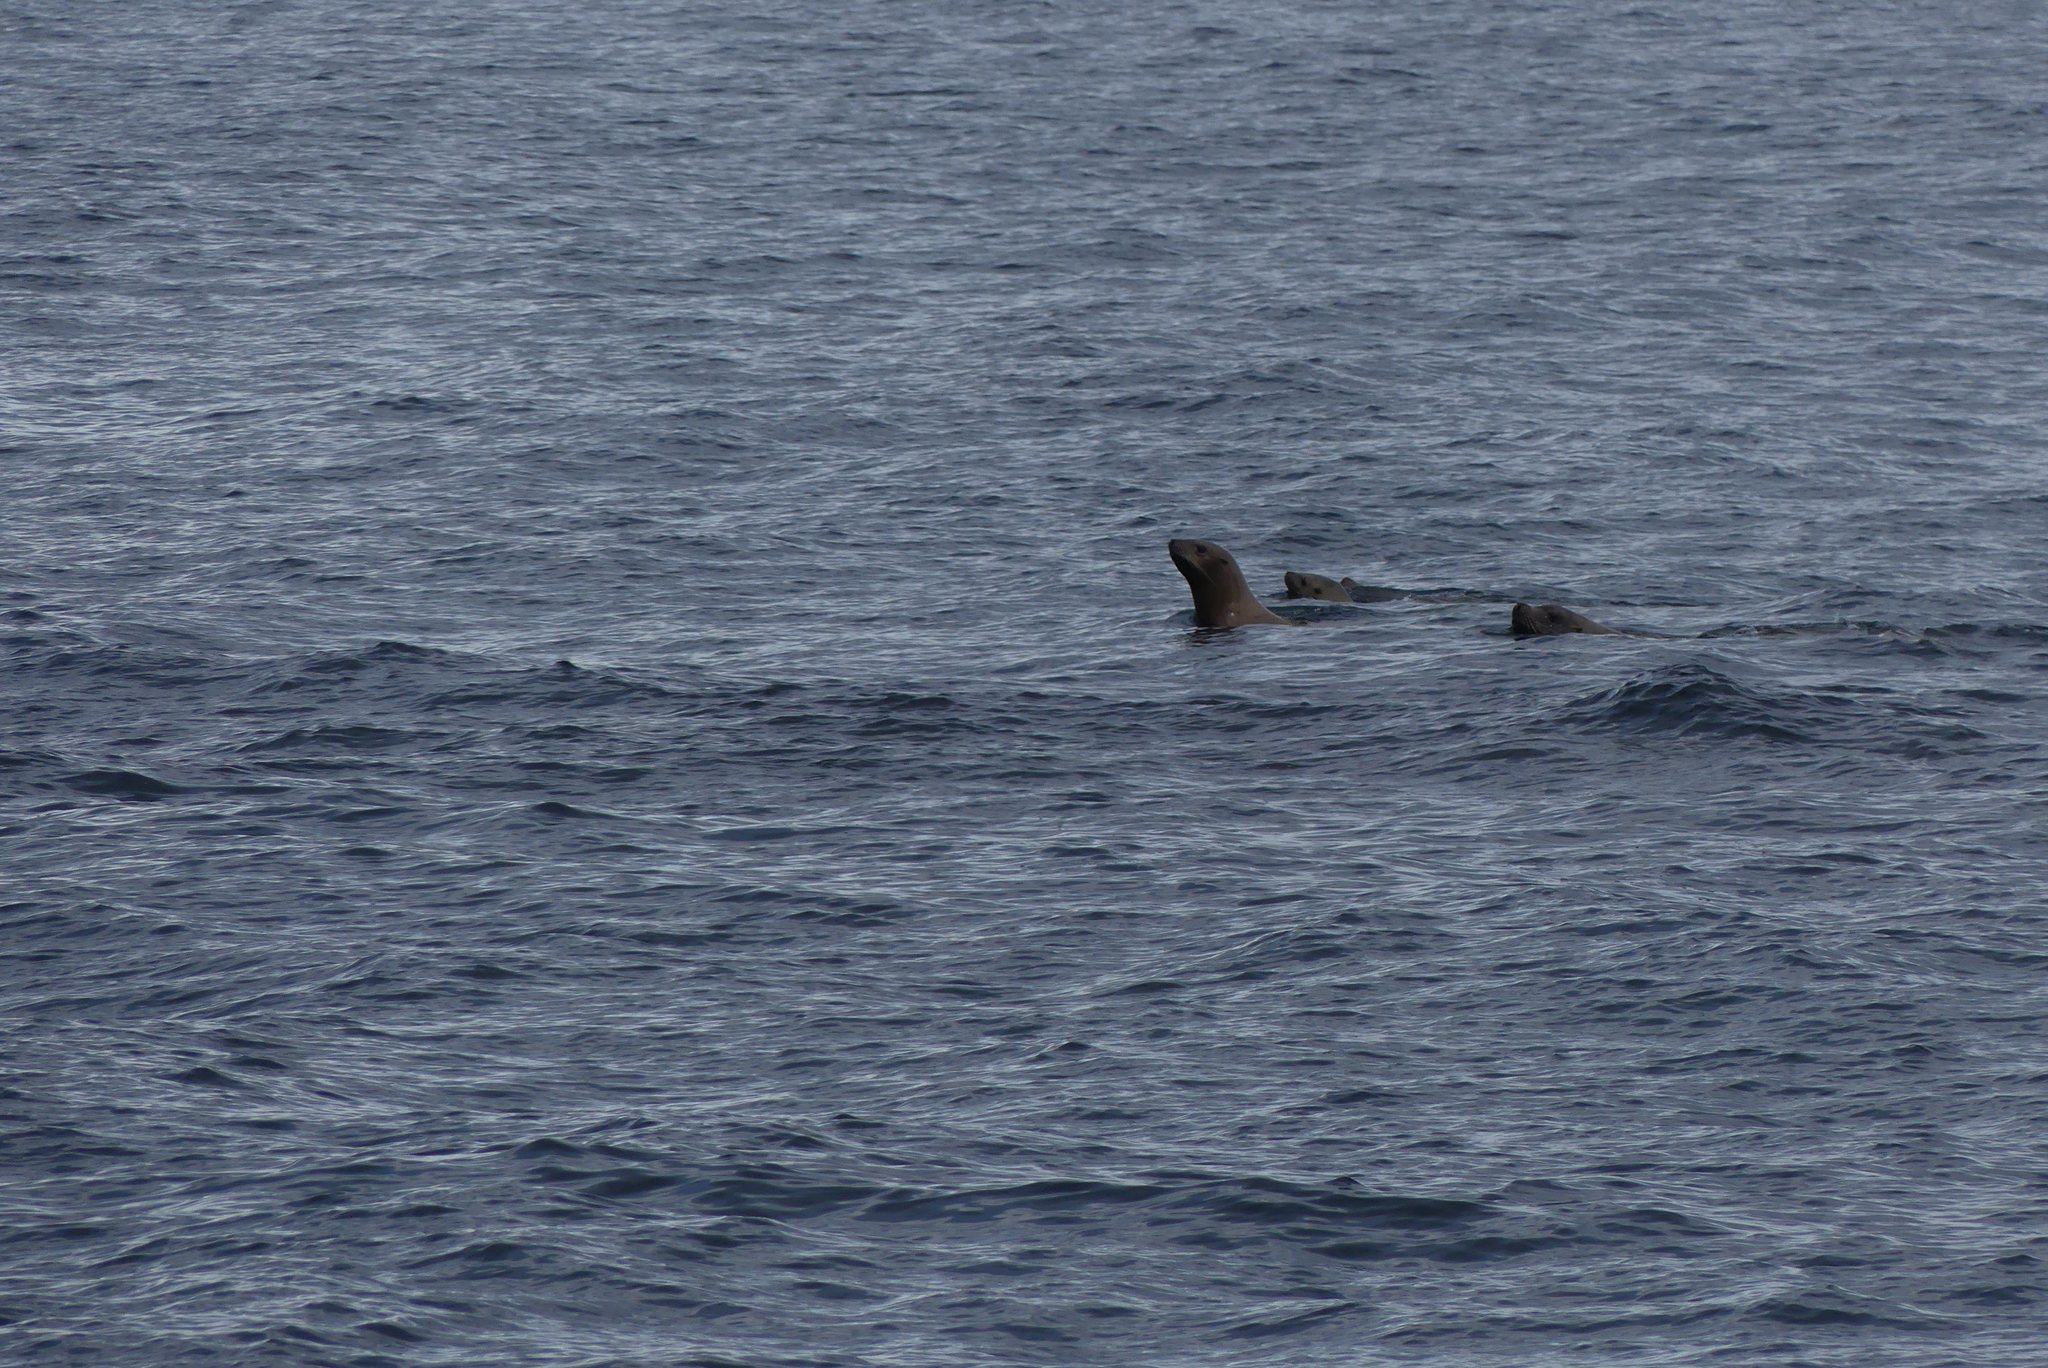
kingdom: Animalia
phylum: Chordata
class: Mammalia
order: Carnivora
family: Otariidae
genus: Eumetopias
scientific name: Eumetopias jubatus
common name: Steller sea lion
